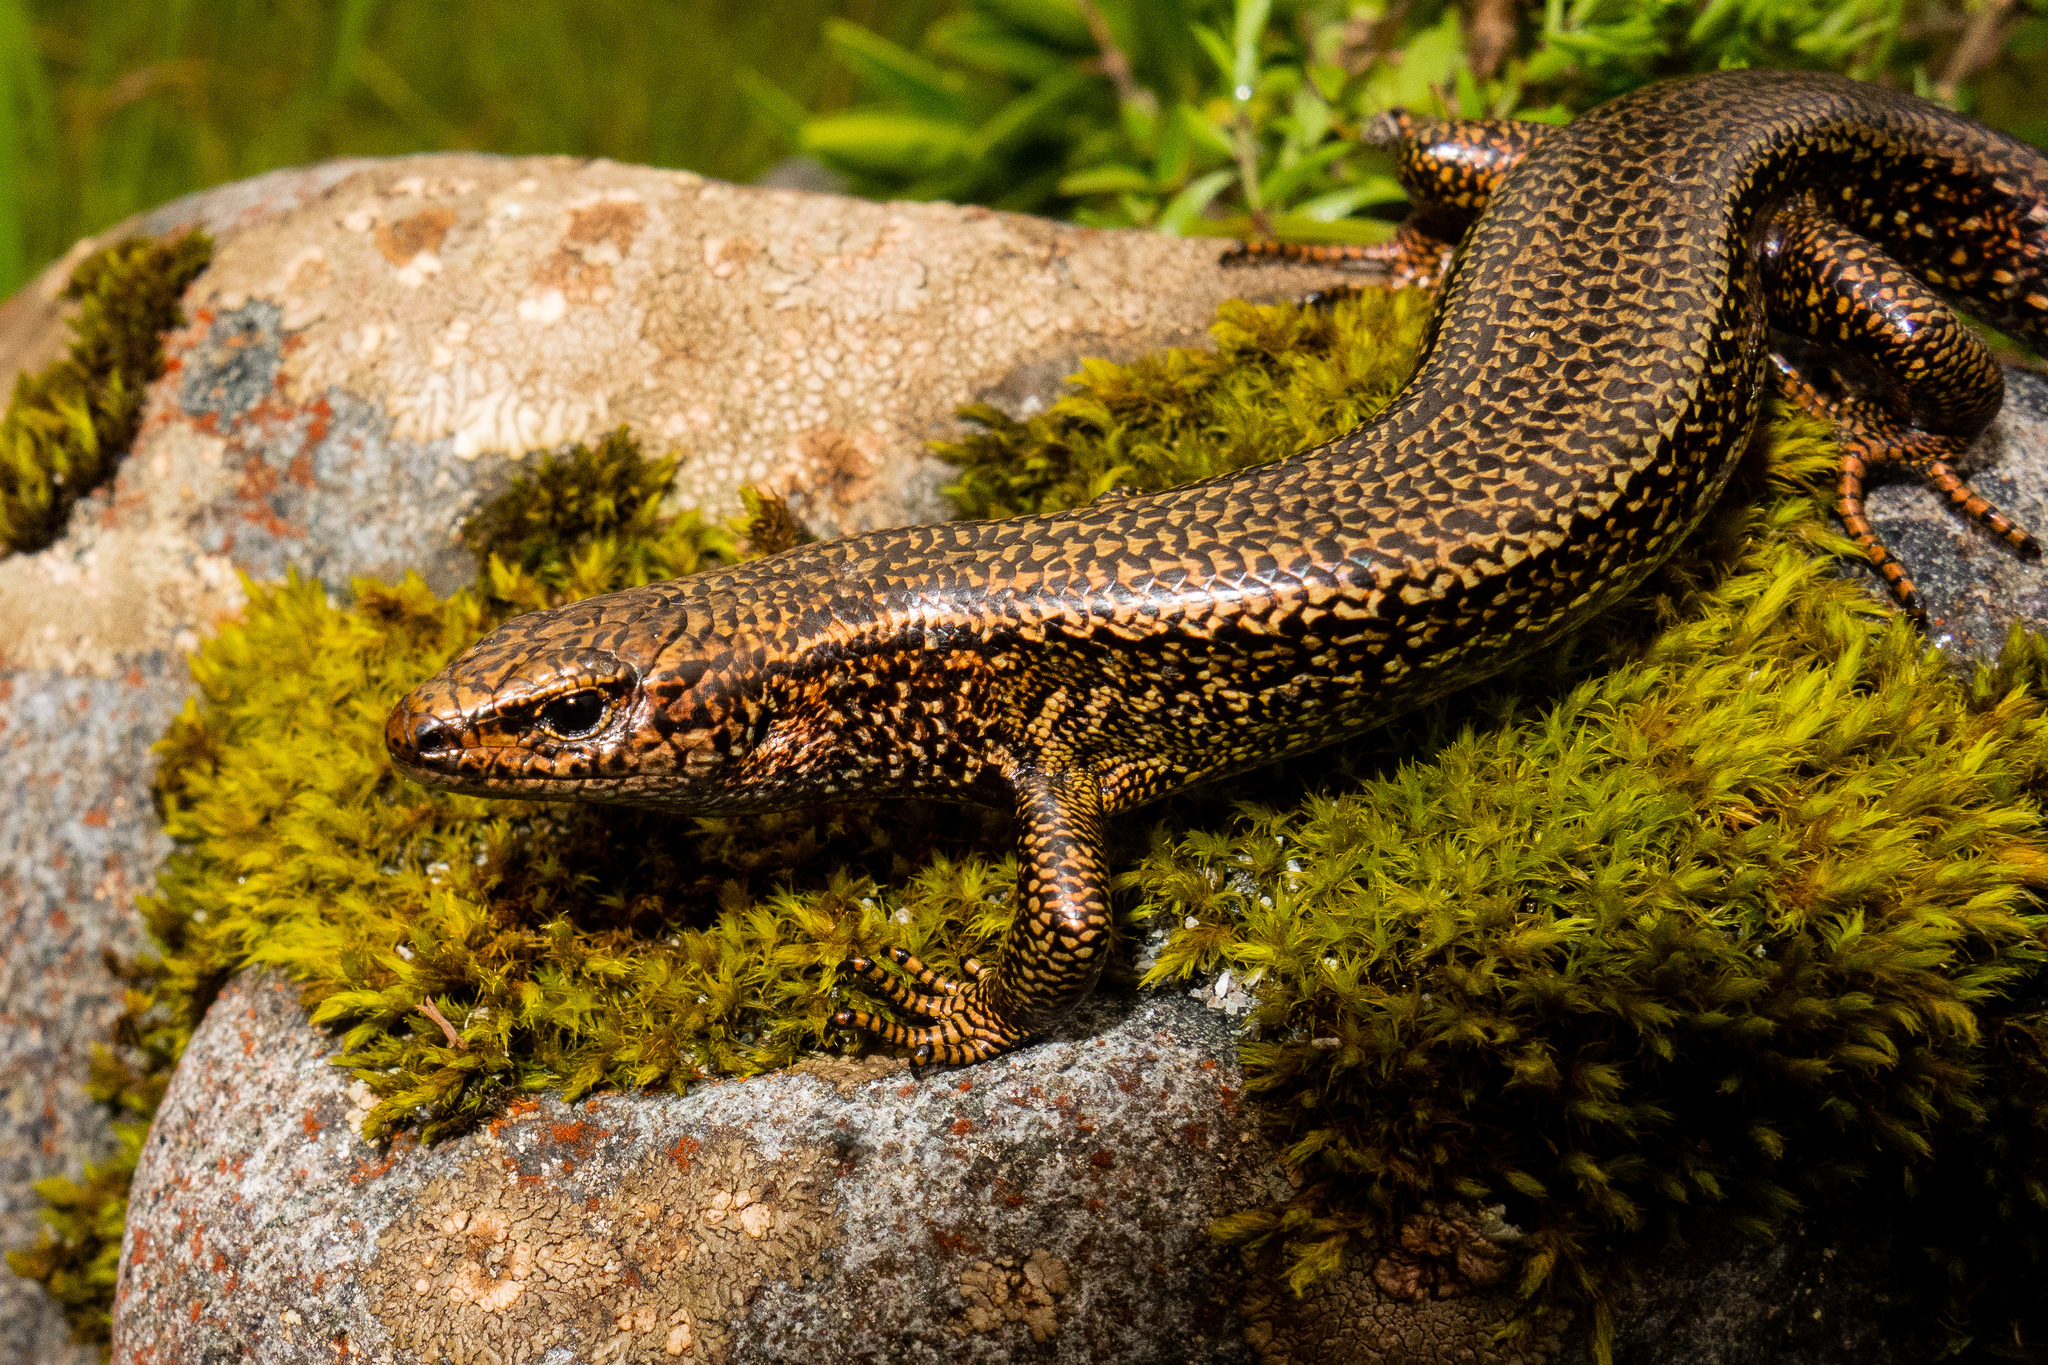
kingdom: Animalia
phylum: Chordata
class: Squamata
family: Scincidae
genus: Oligosoma
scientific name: Oligosoma awakopaka
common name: Awakopaka skink
